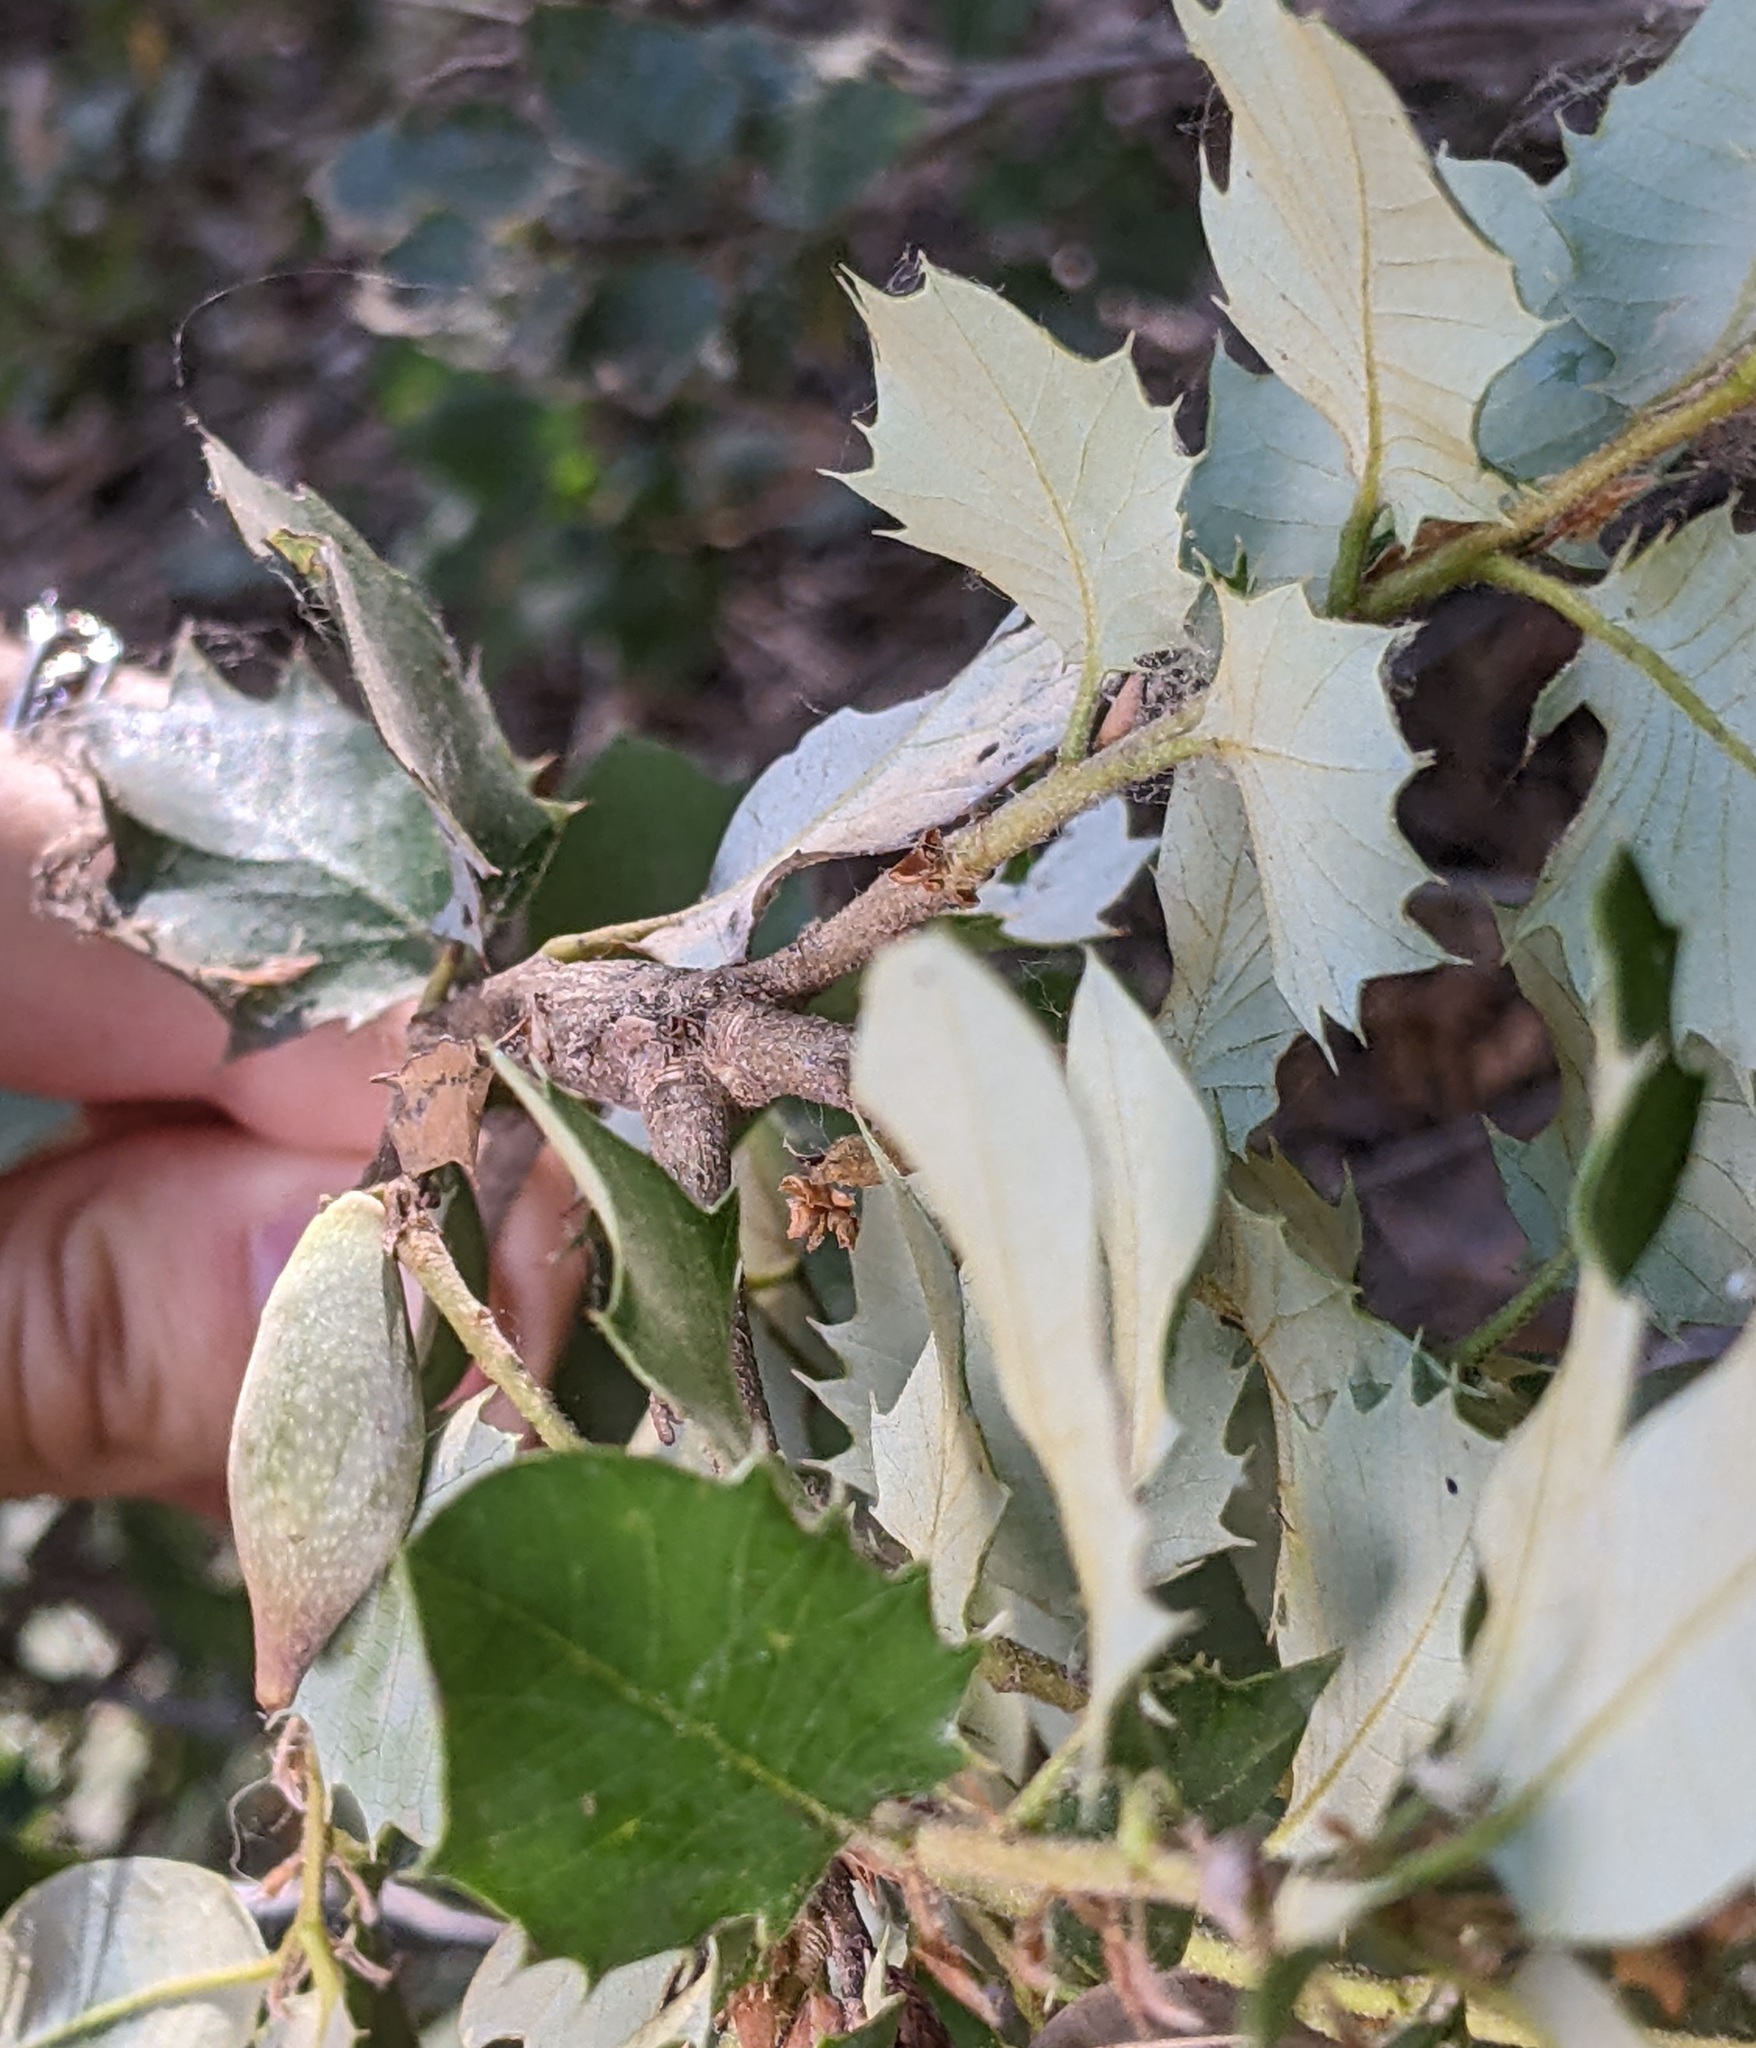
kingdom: Animalia
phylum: Arthropoda
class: Insecta
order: Hymenoptera
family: Cynipidae
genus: Heteroecus
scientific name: Heteroecus pacificus
